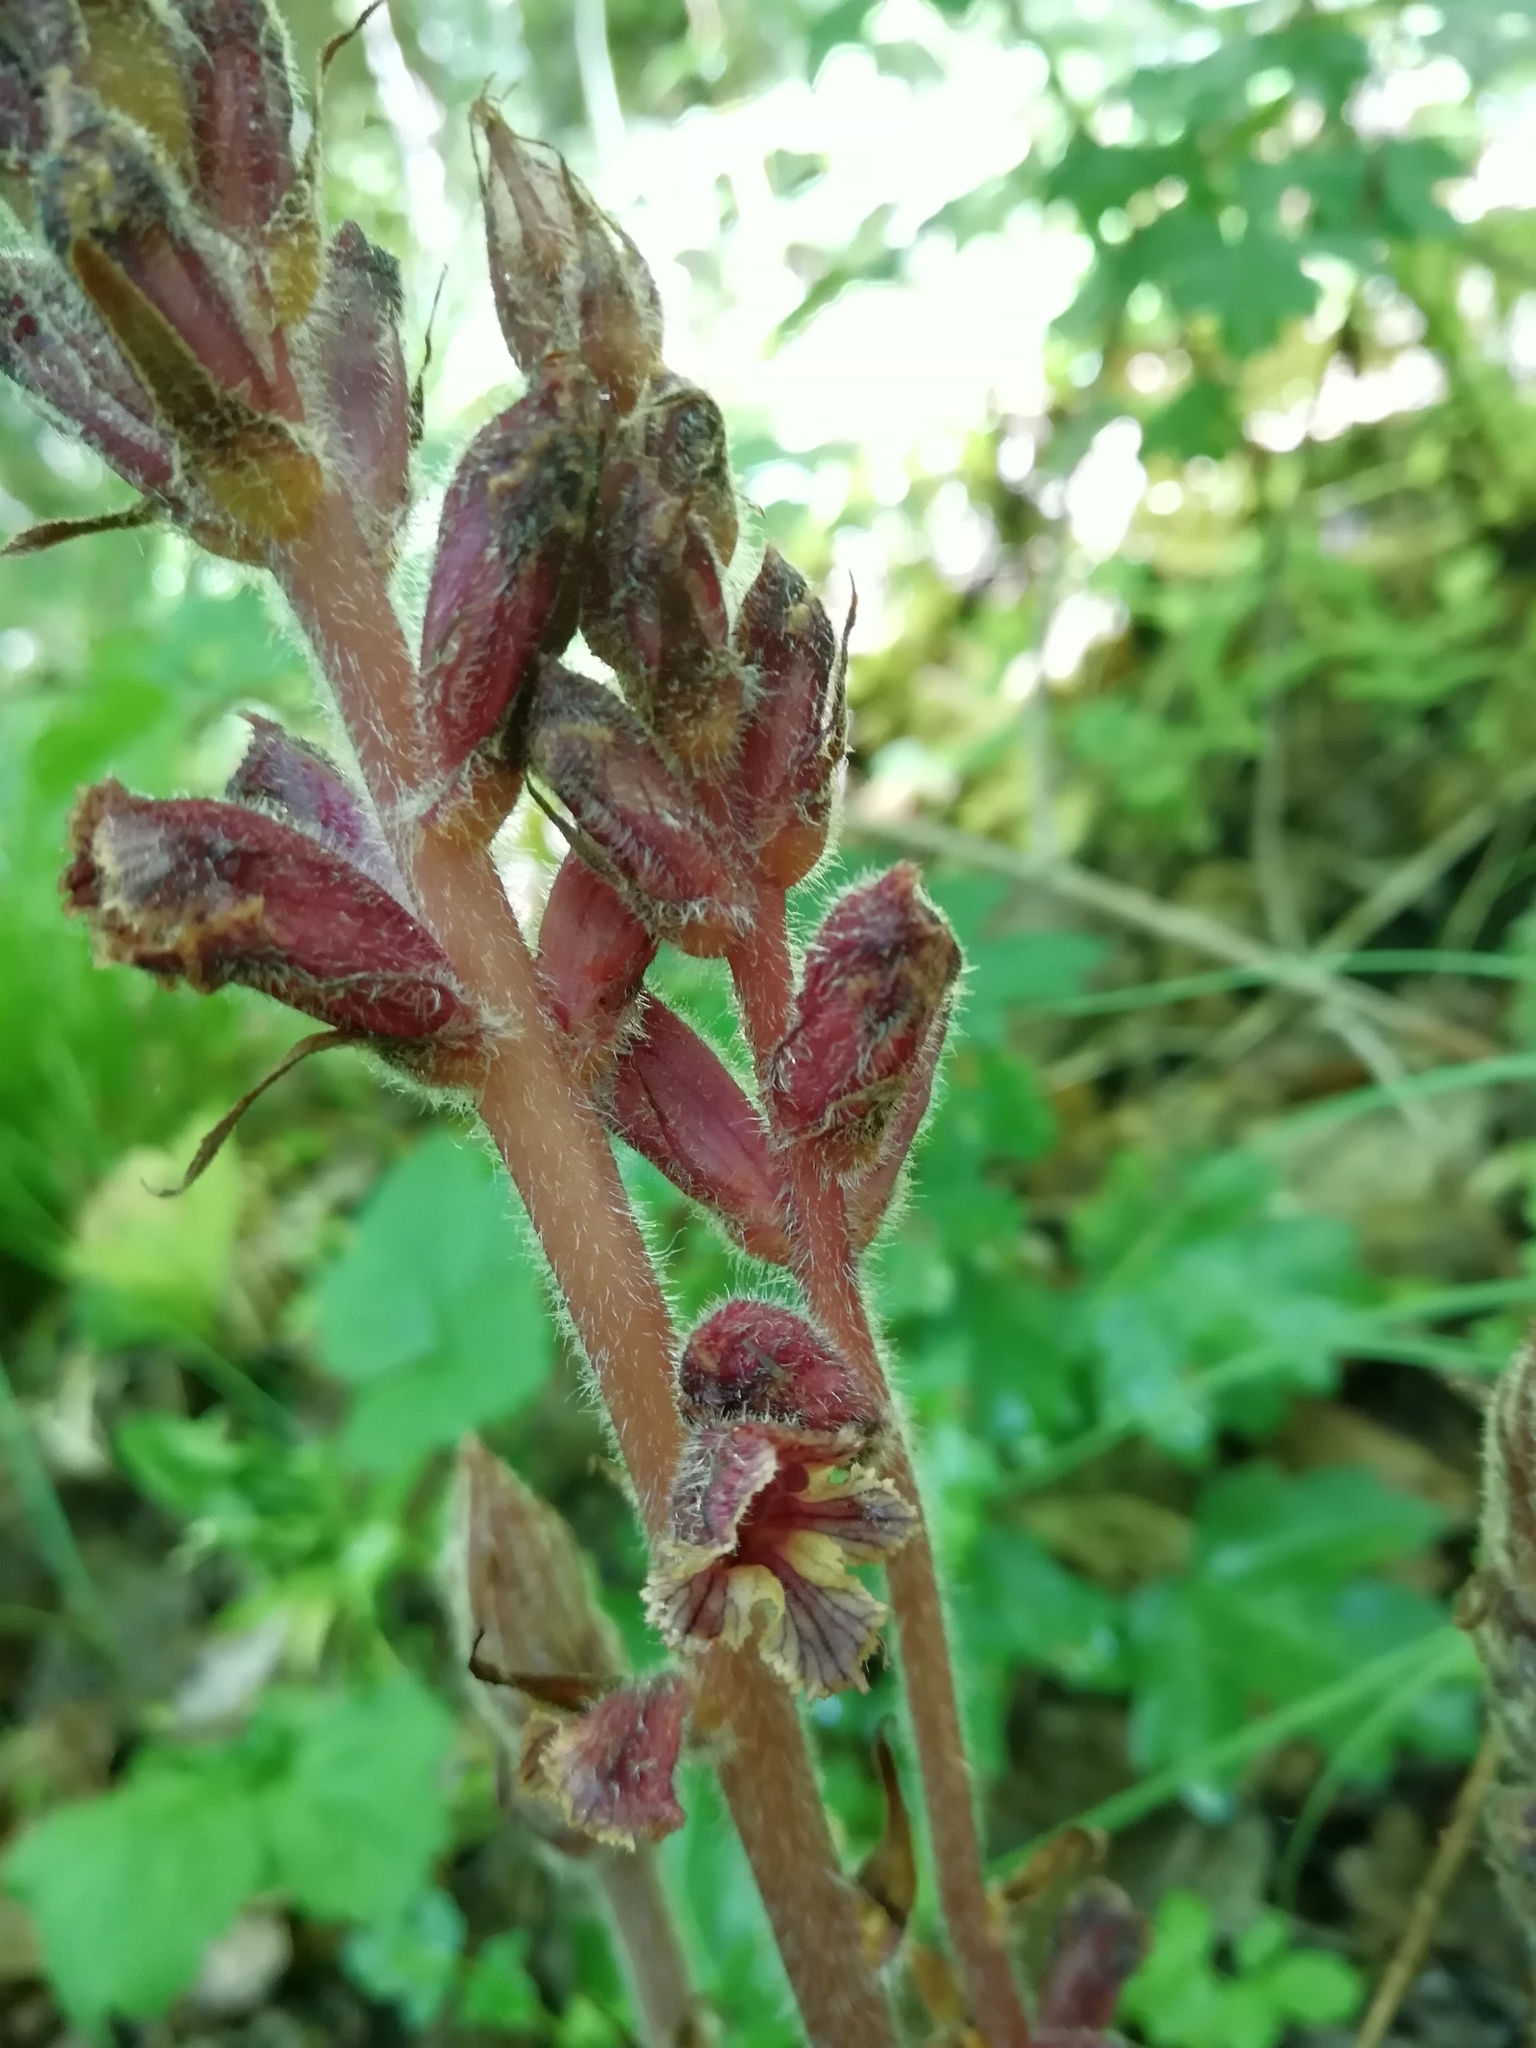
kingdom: Plantae
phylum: Tracheophyta
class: Magnoliopsida
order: Lamiales
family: Orobanchaceae
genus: Orobanche
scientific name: Orobanche laxissima
